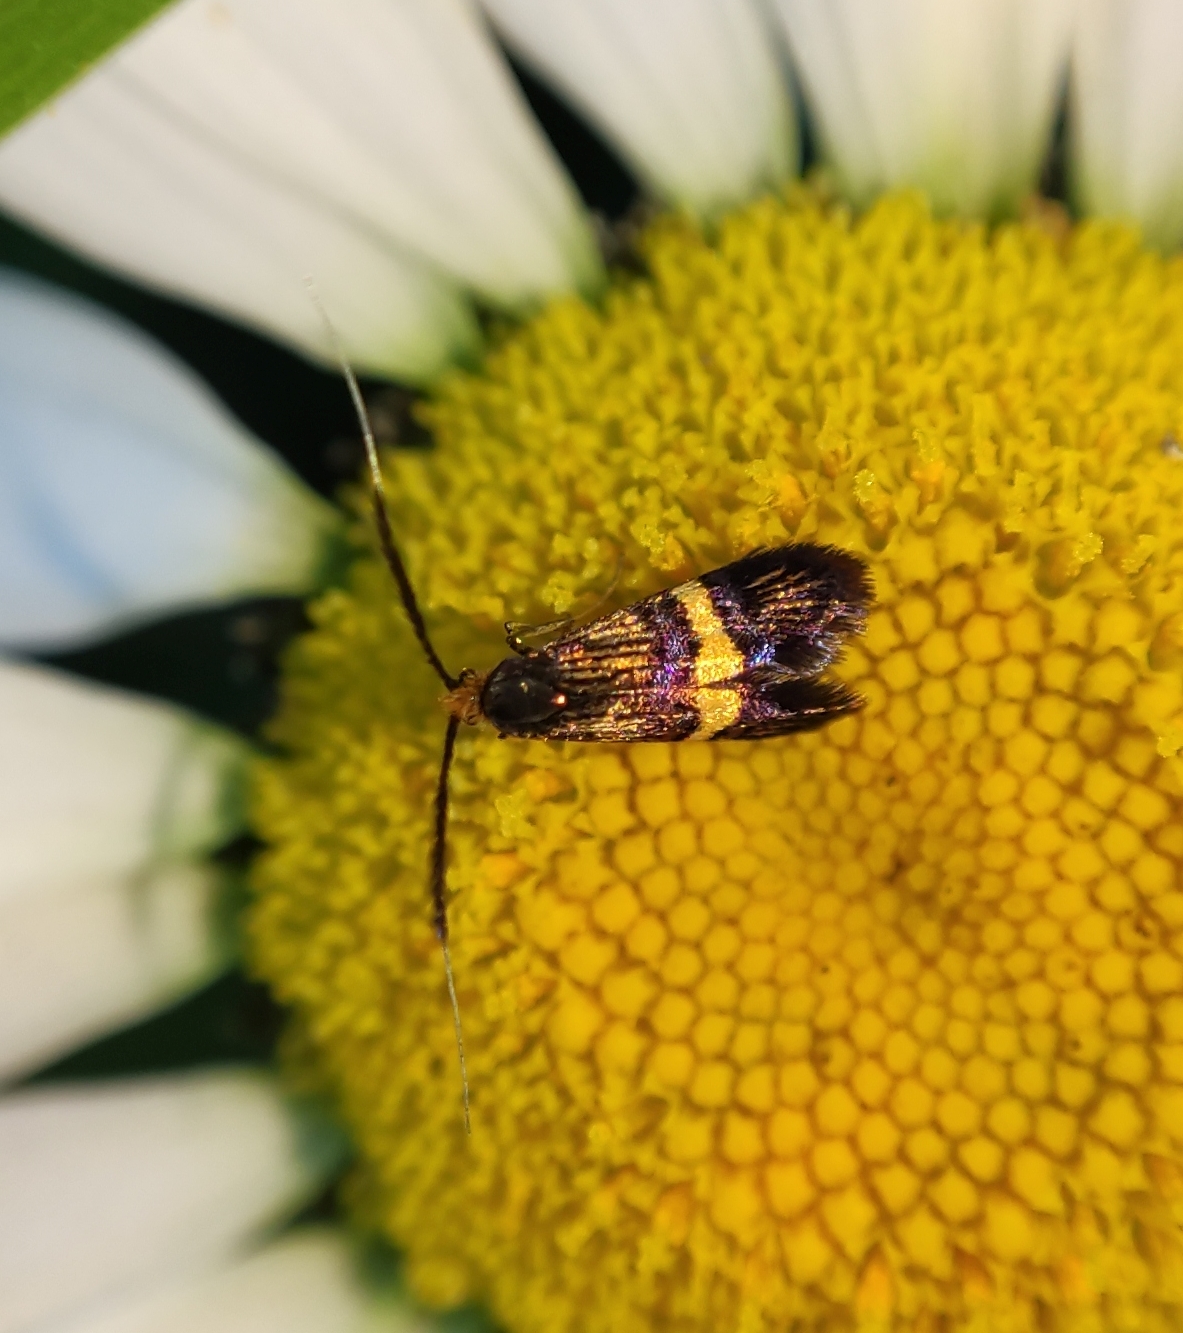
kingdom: Animalia
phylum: Arthropoda
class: Insecta
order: Lepidoptera
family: Adelidae
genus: Adela
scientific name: Adela croesella
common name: Small barred long-horn
